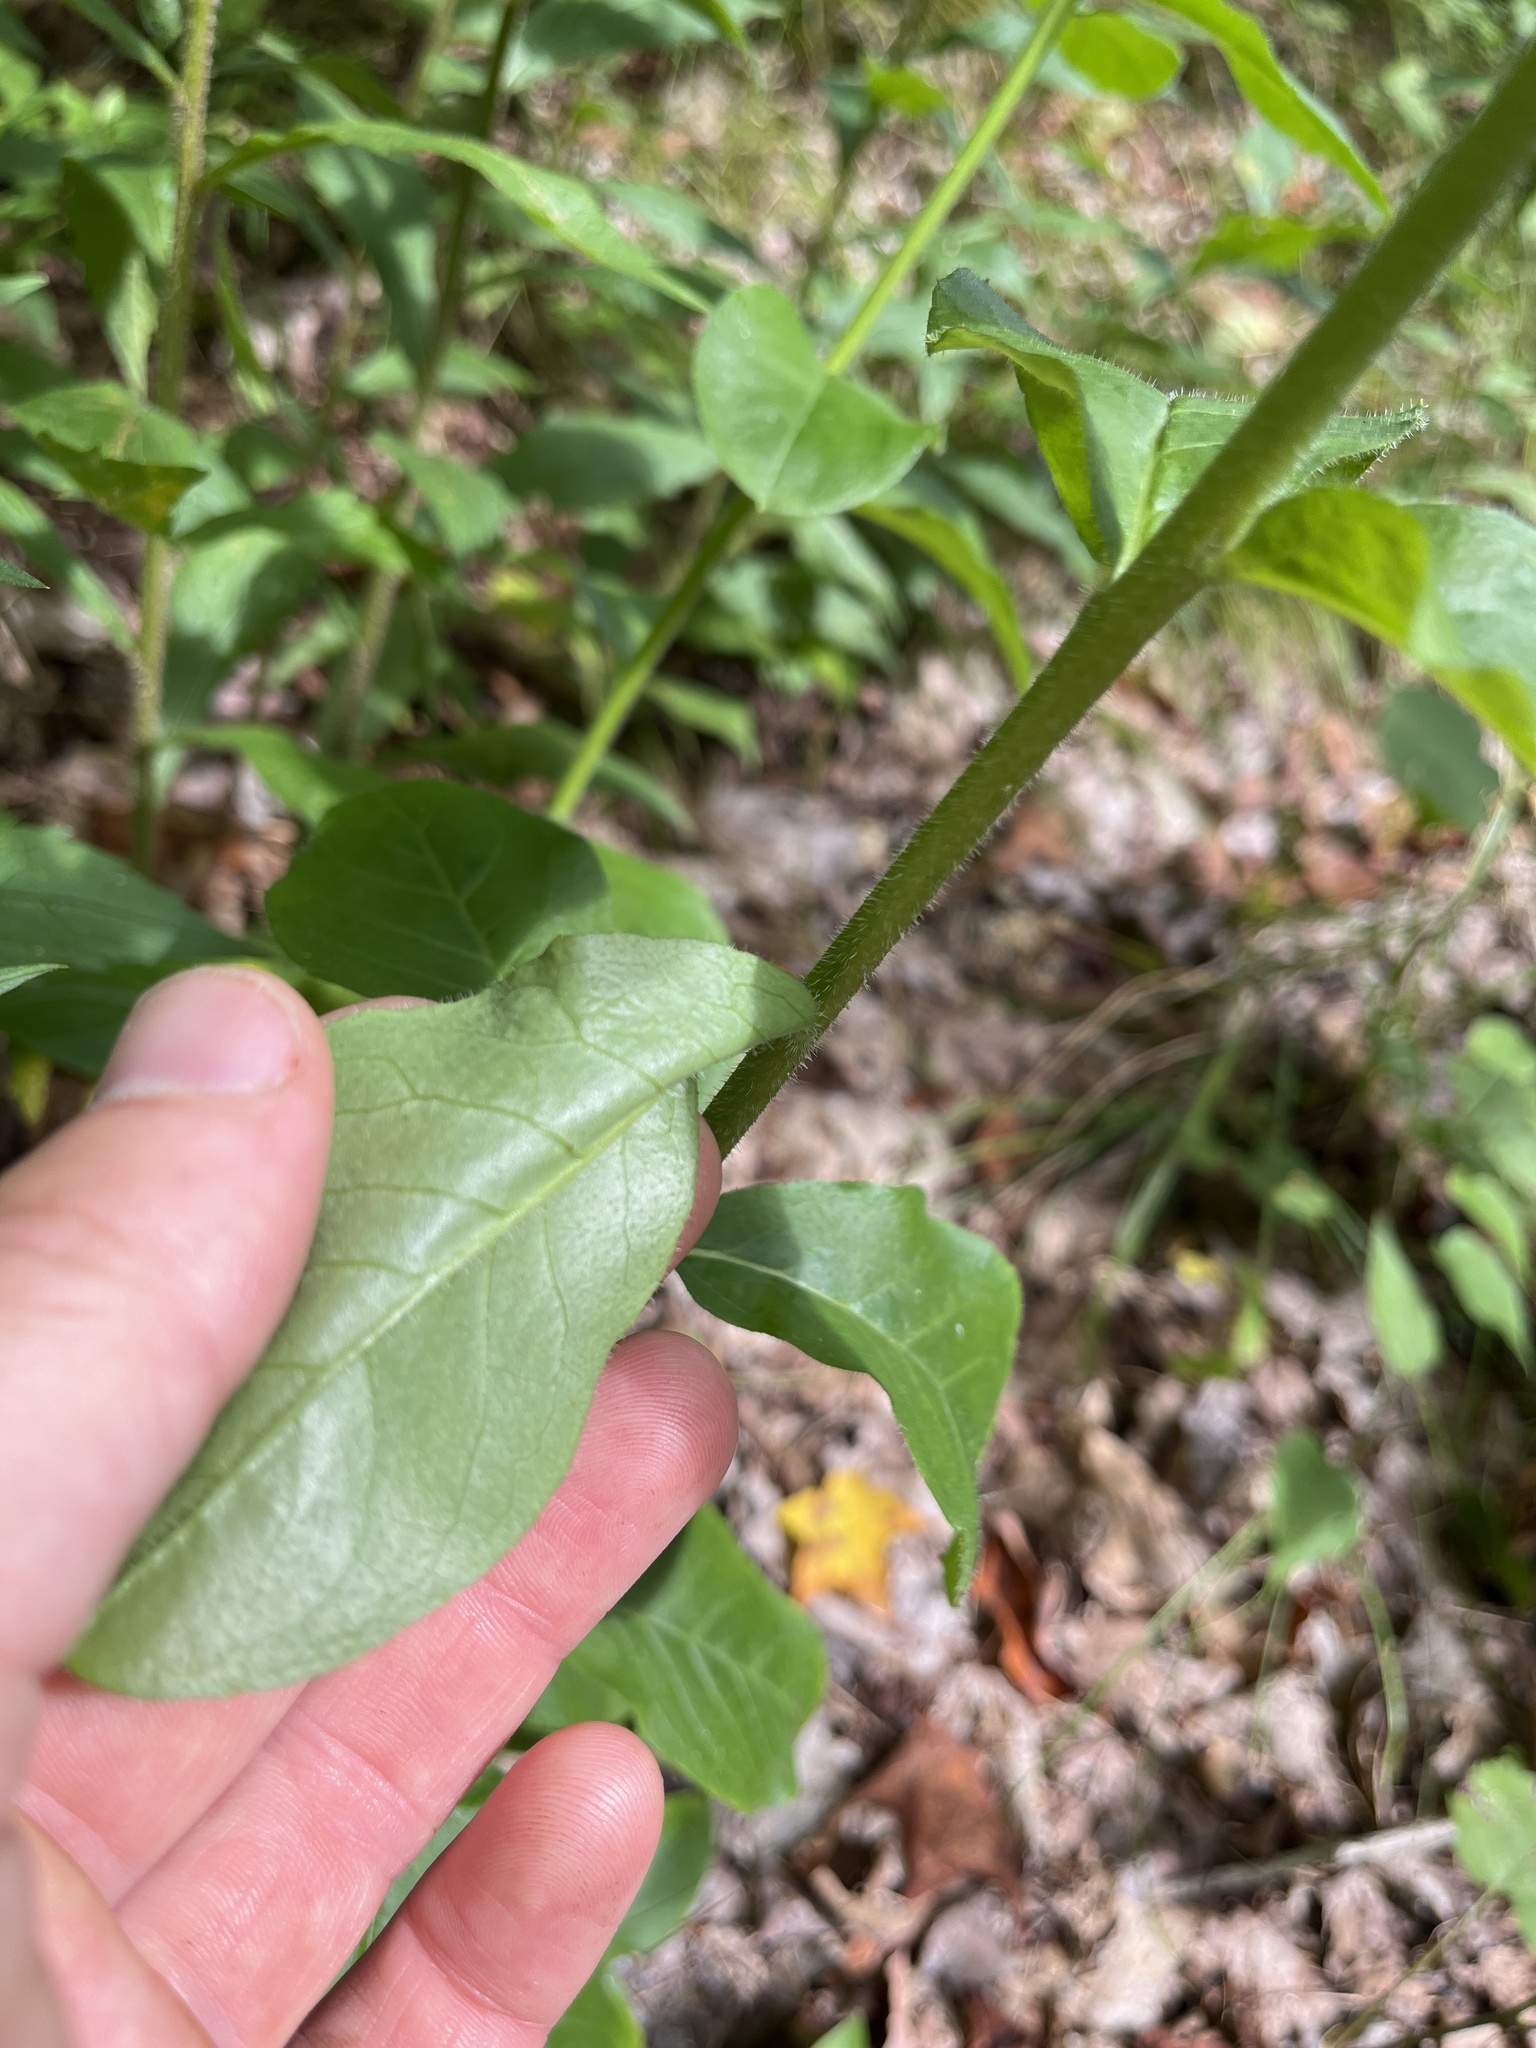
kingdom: Plantae
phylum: Tracheophyta
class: Magnoliopsida
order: Asterales
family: Asteraceae
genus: Hieracium
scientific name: Hieracium scabrum
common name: Rough hawkweed
